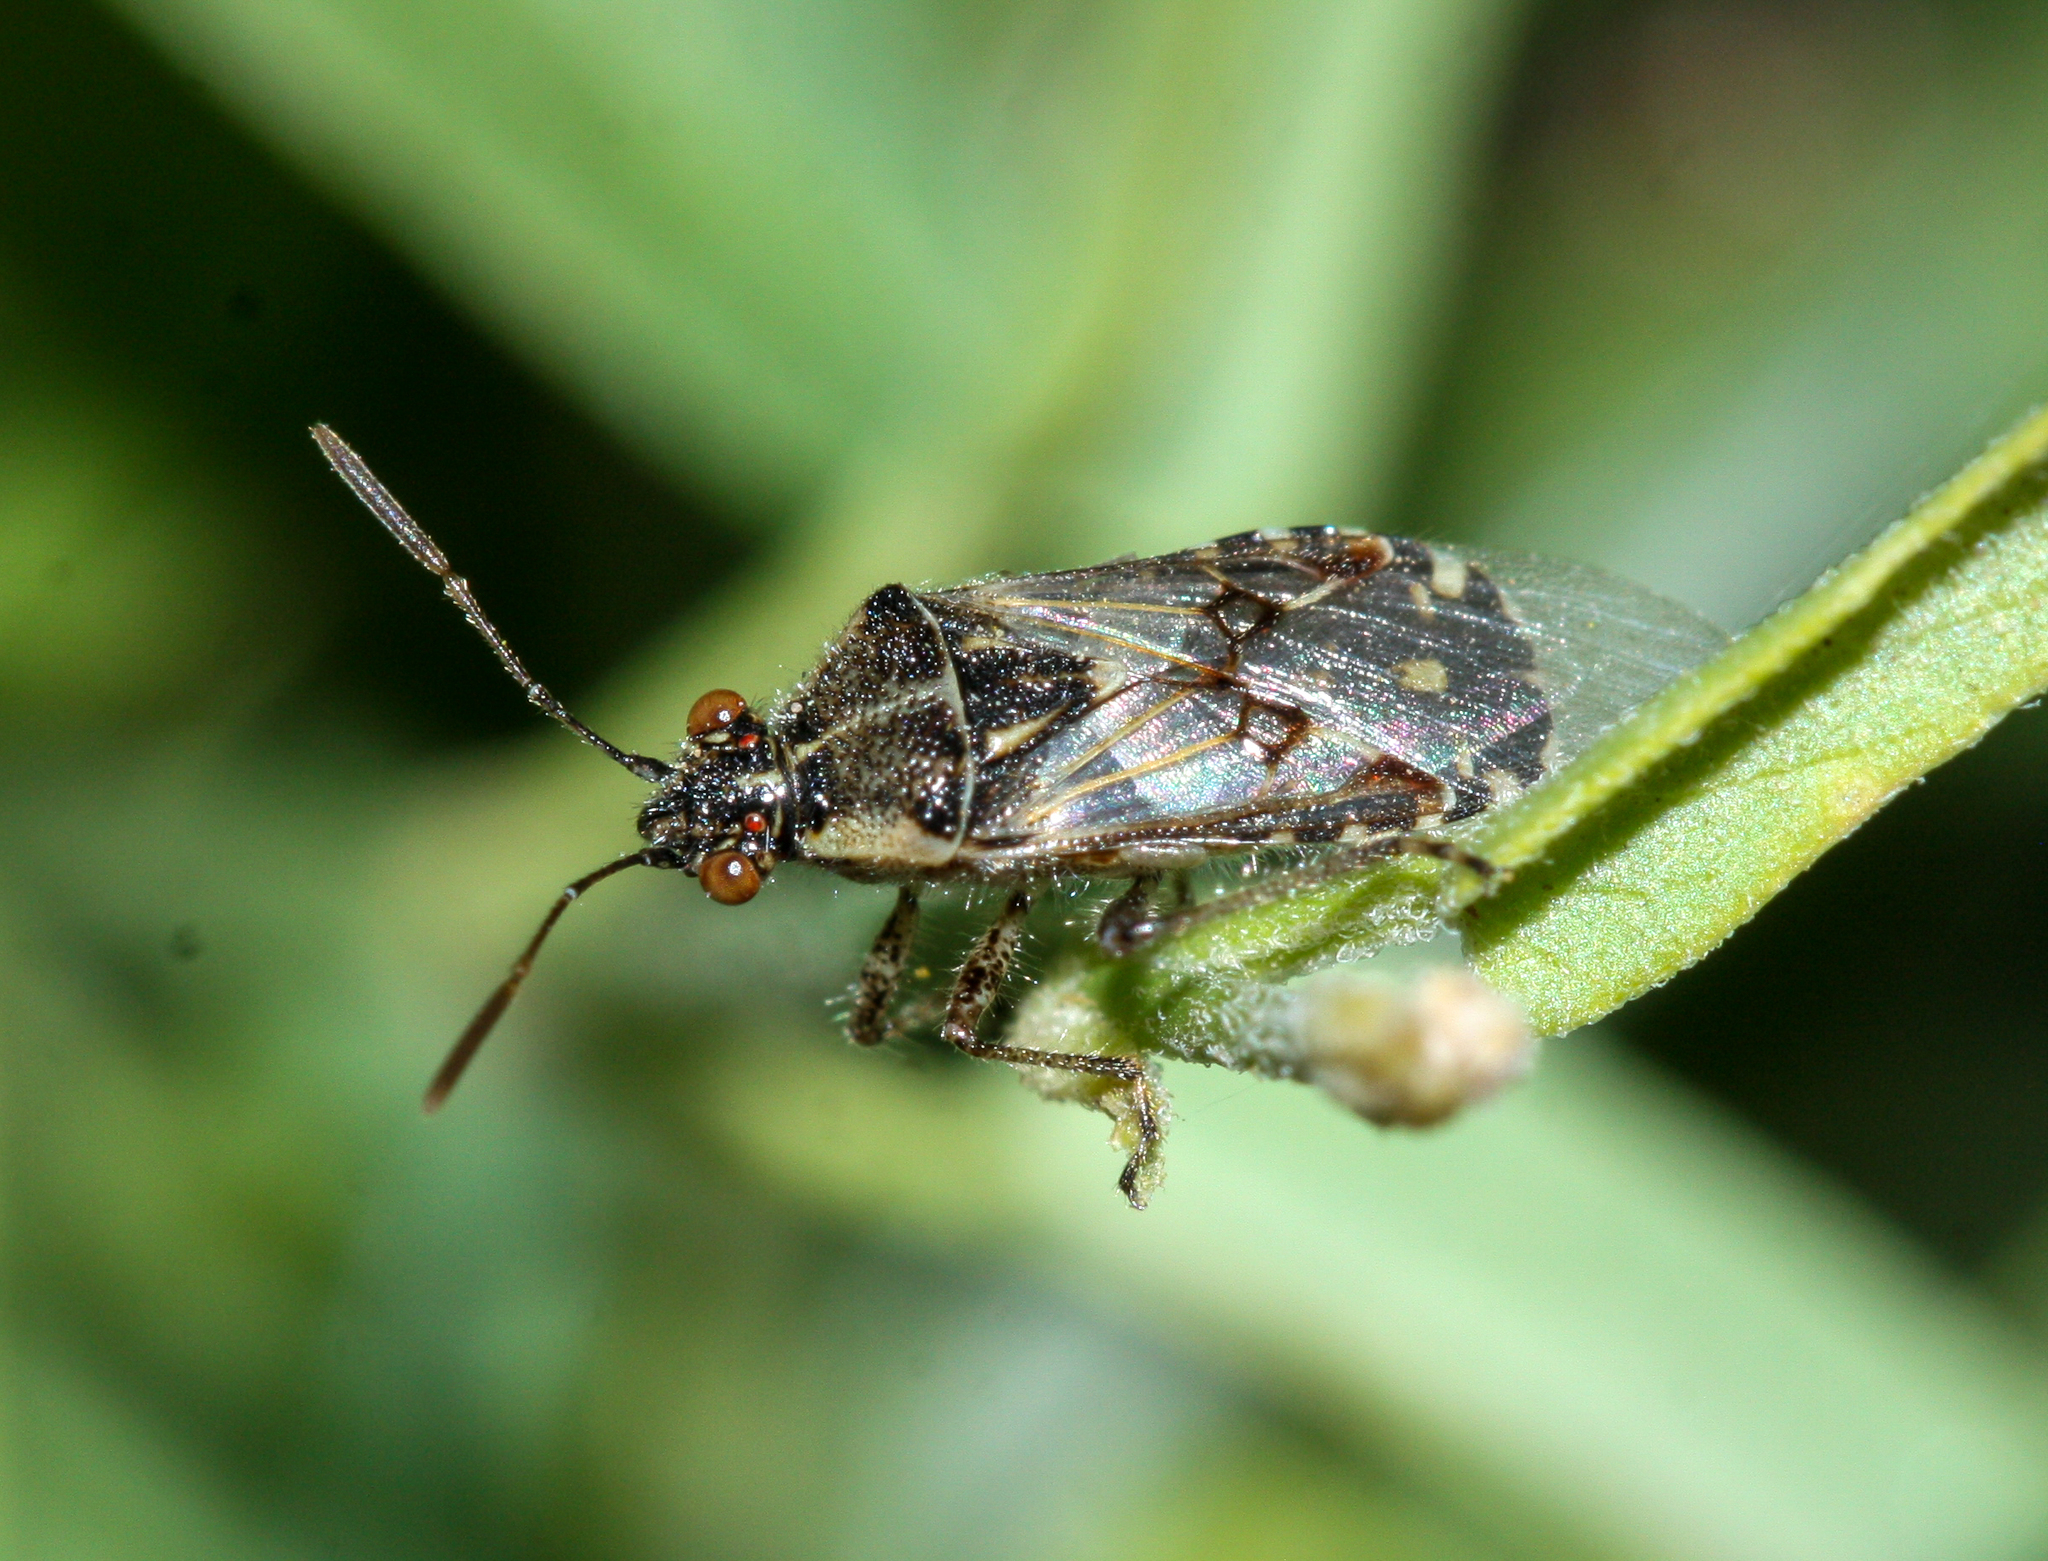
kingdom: Animalia
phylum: Arthropoda
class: Insecta
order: Hemiptera
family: Rhopalidae
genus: Liorhyssus
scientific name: Liorhyssus hyalinus
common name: Scentless plant bug
